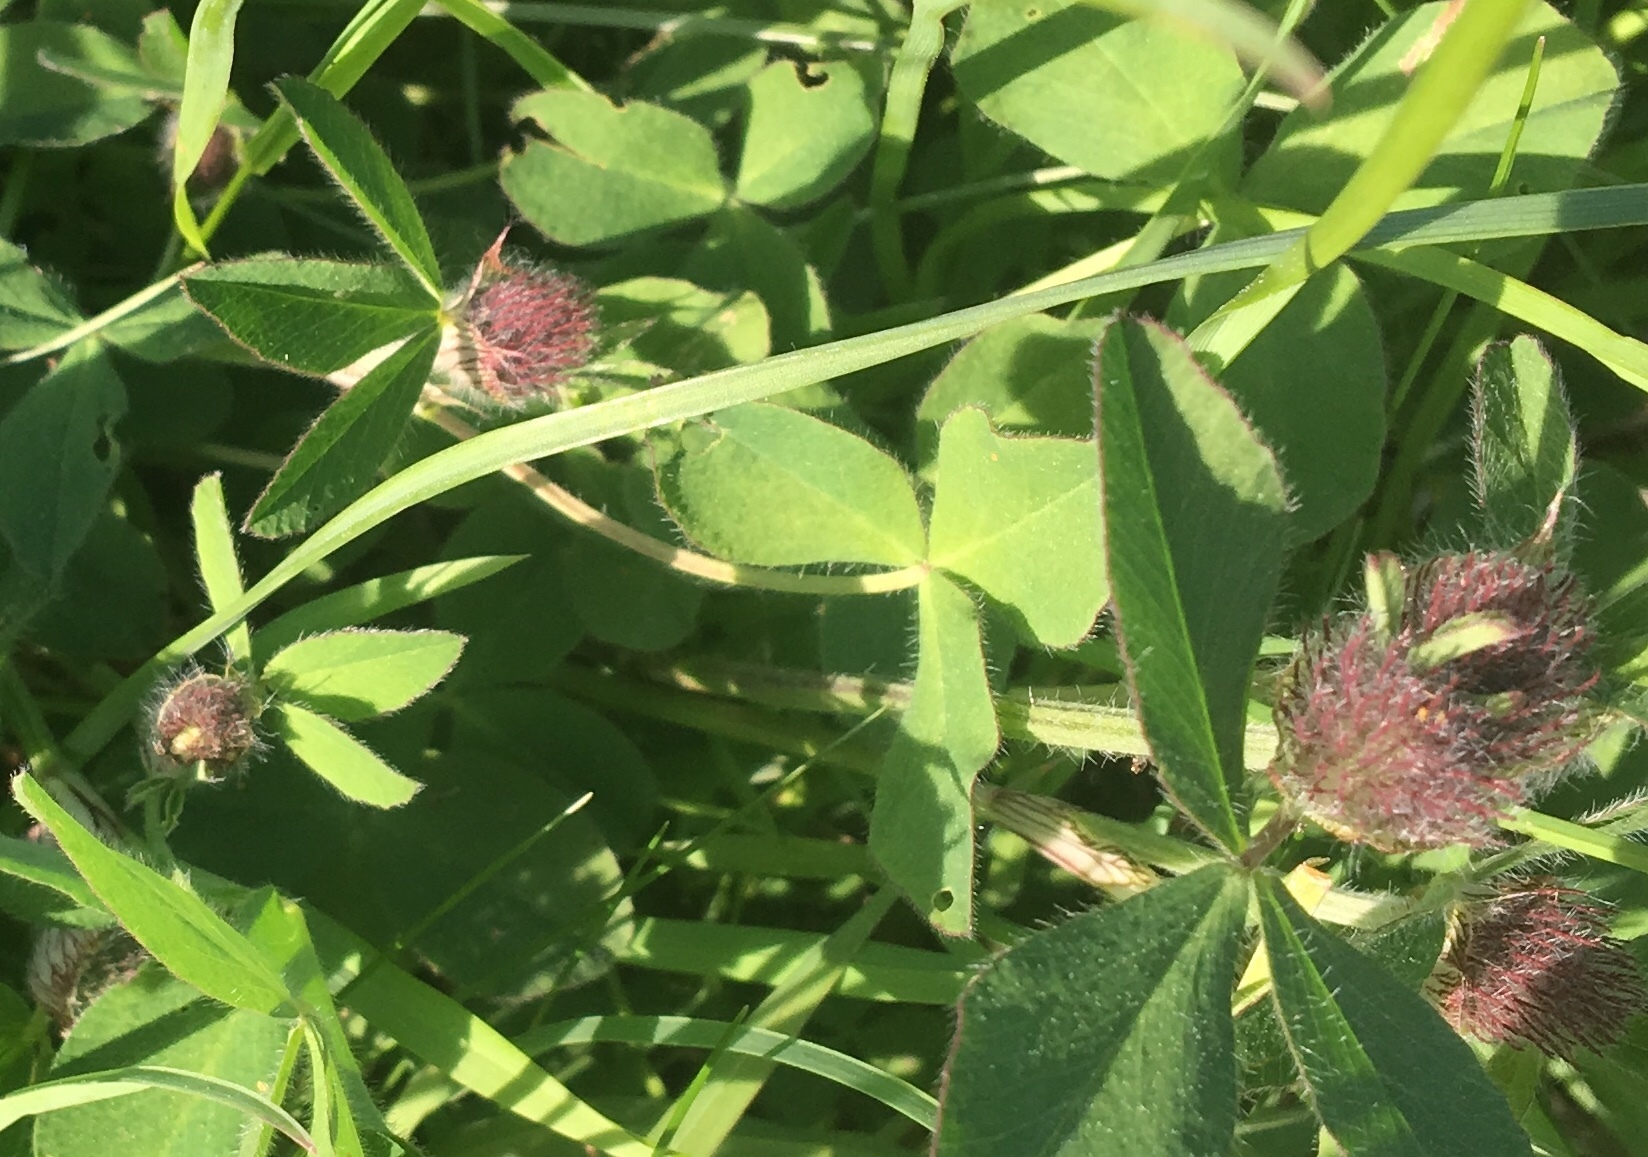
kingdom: Plantae
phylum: Tracheophyta
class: Magnoliopsida
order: Fabales
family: Fabaceae
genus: Trifolium
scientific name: Trifolium pratense
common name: Red clover
